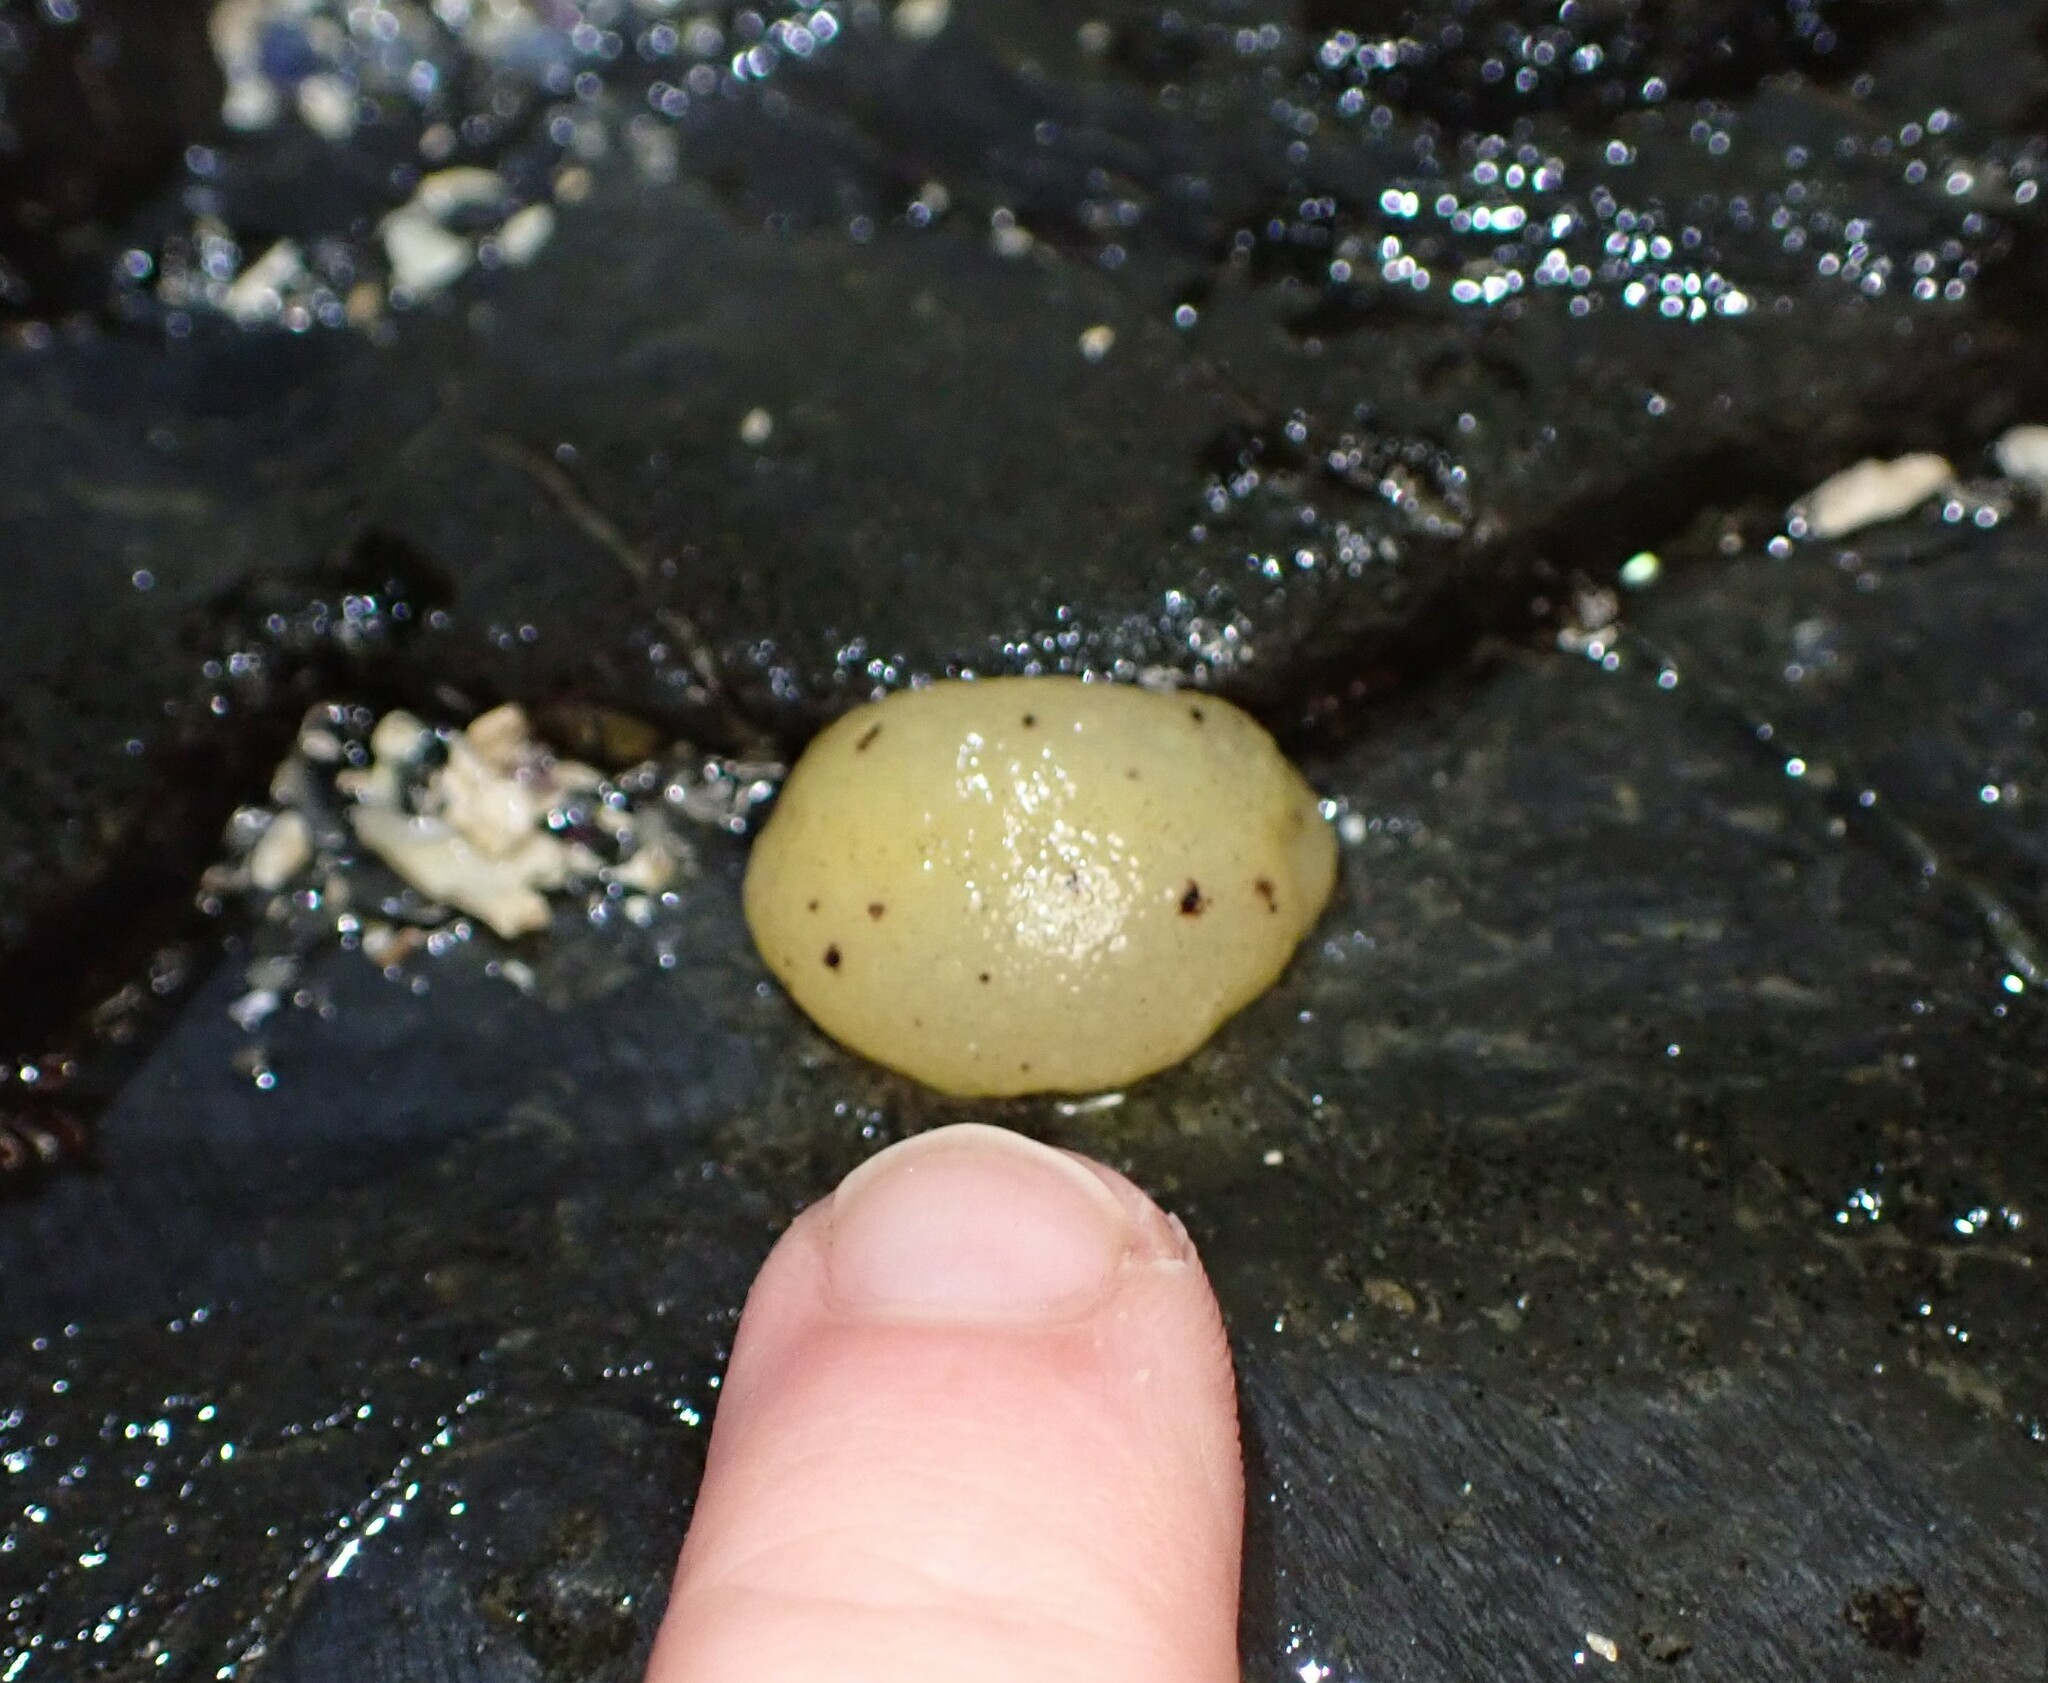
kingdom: Animalia
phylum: Mollusca
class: Gastropoda
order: Nudibranchia
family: Dorididae
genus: Doris
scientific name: Doris montereyensis
